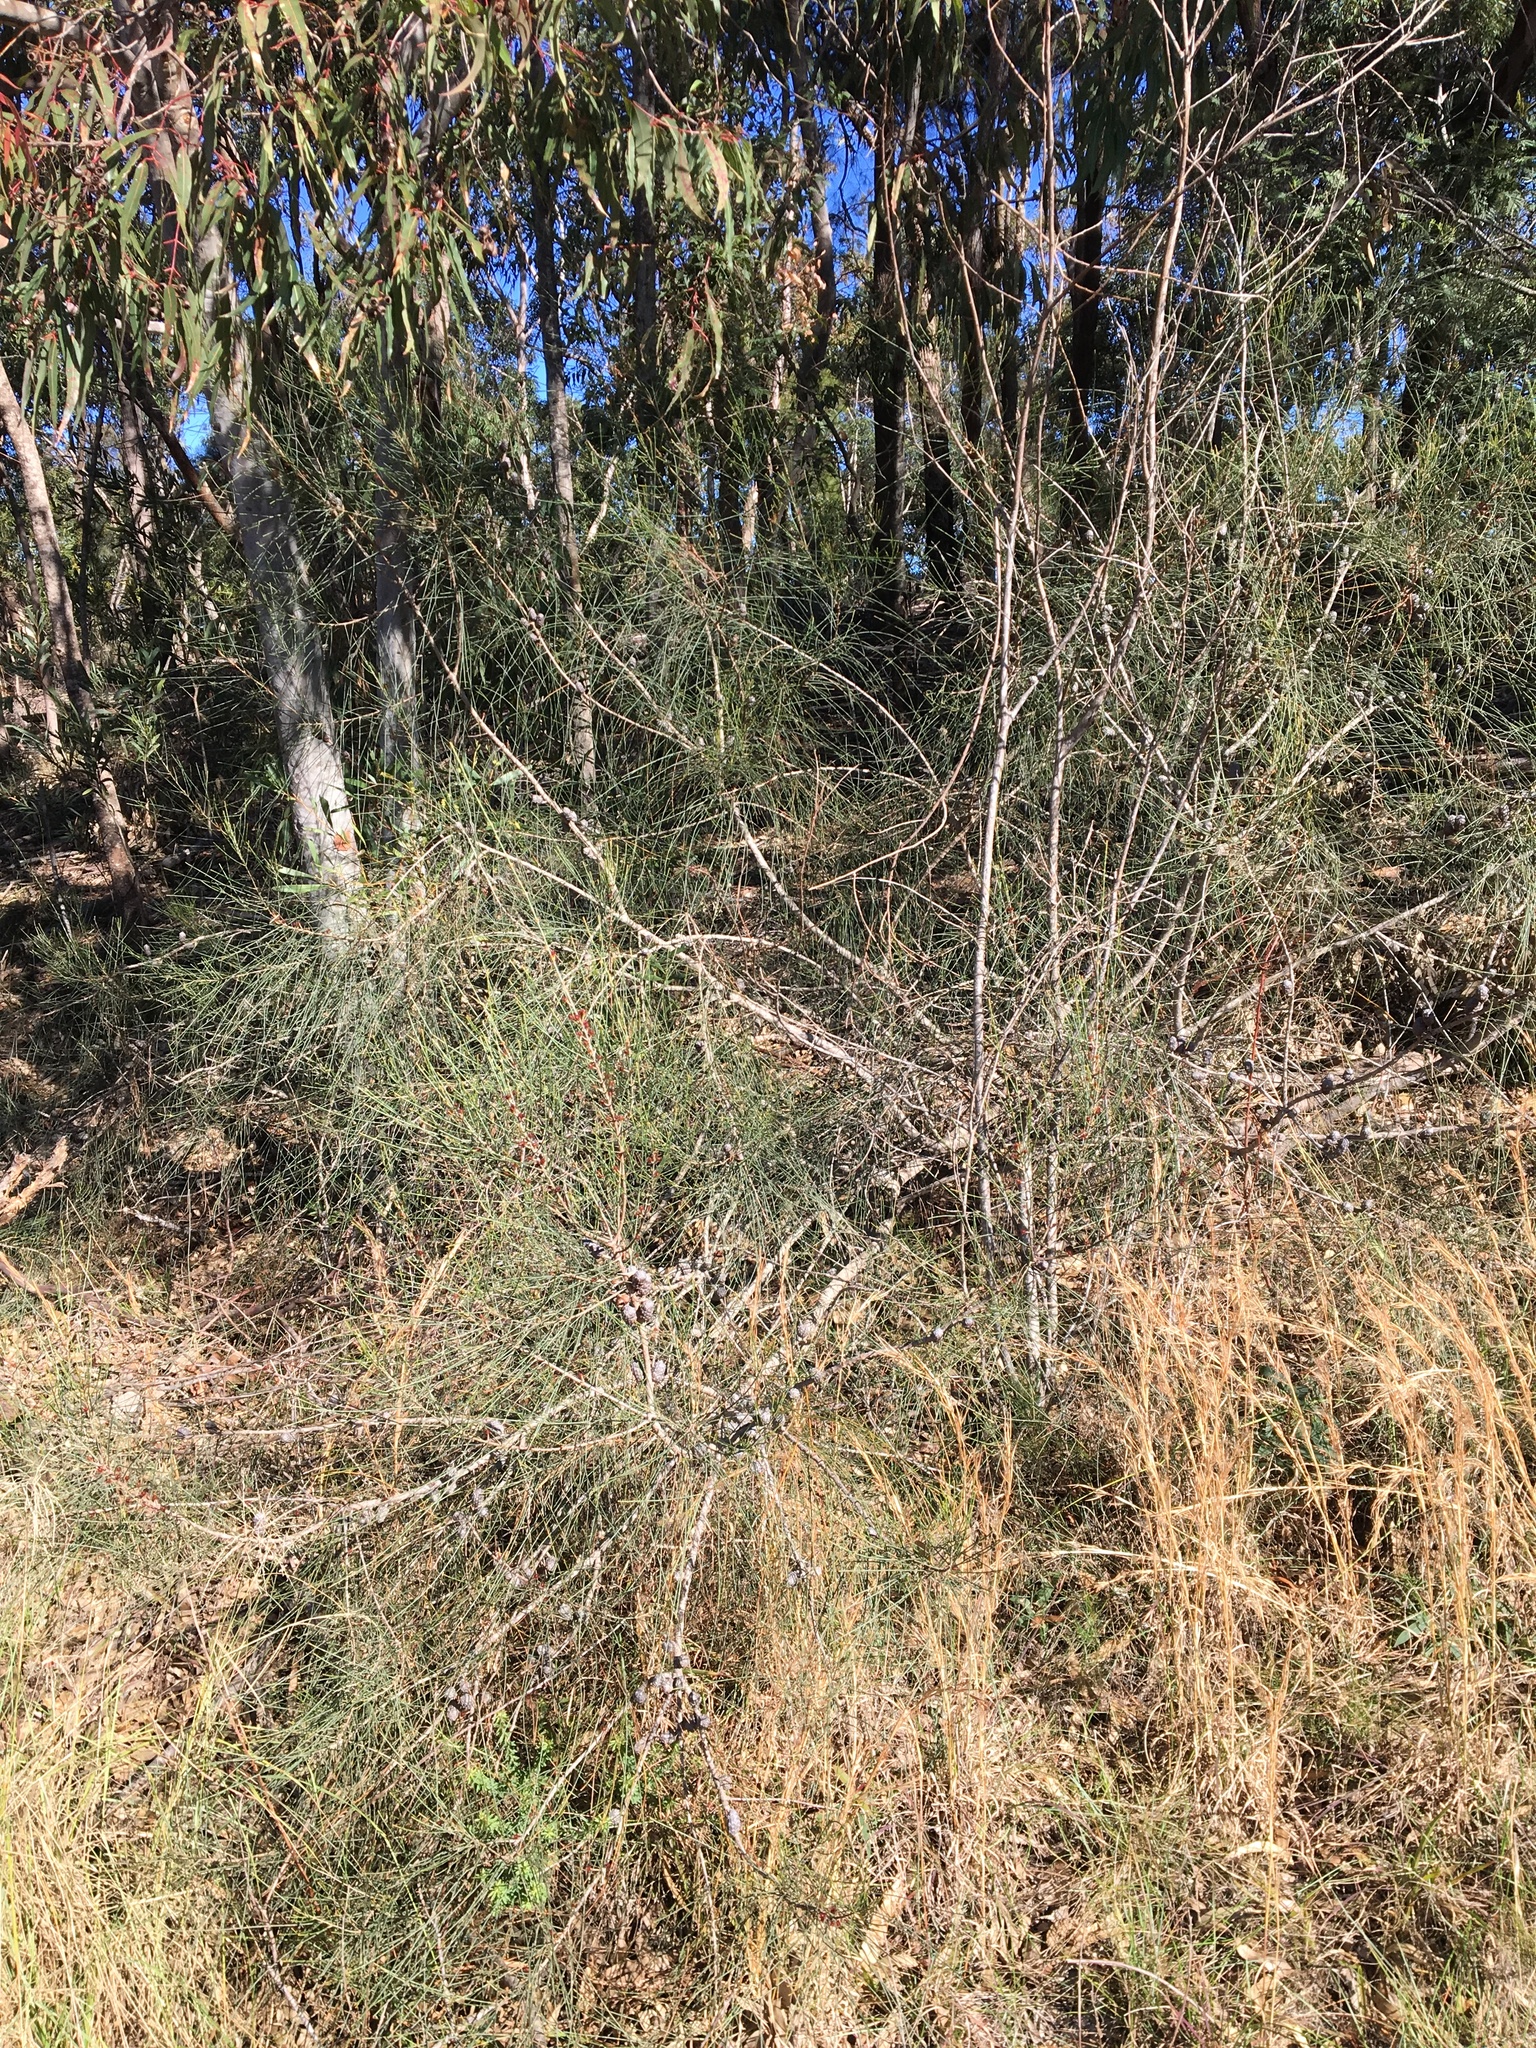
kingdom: Plantae
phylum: Tracheophyta
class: Magnoliopsida
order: Fagales
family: Casuarinaceae
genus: Allocasuarina
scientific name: Allocasuarina distyla
